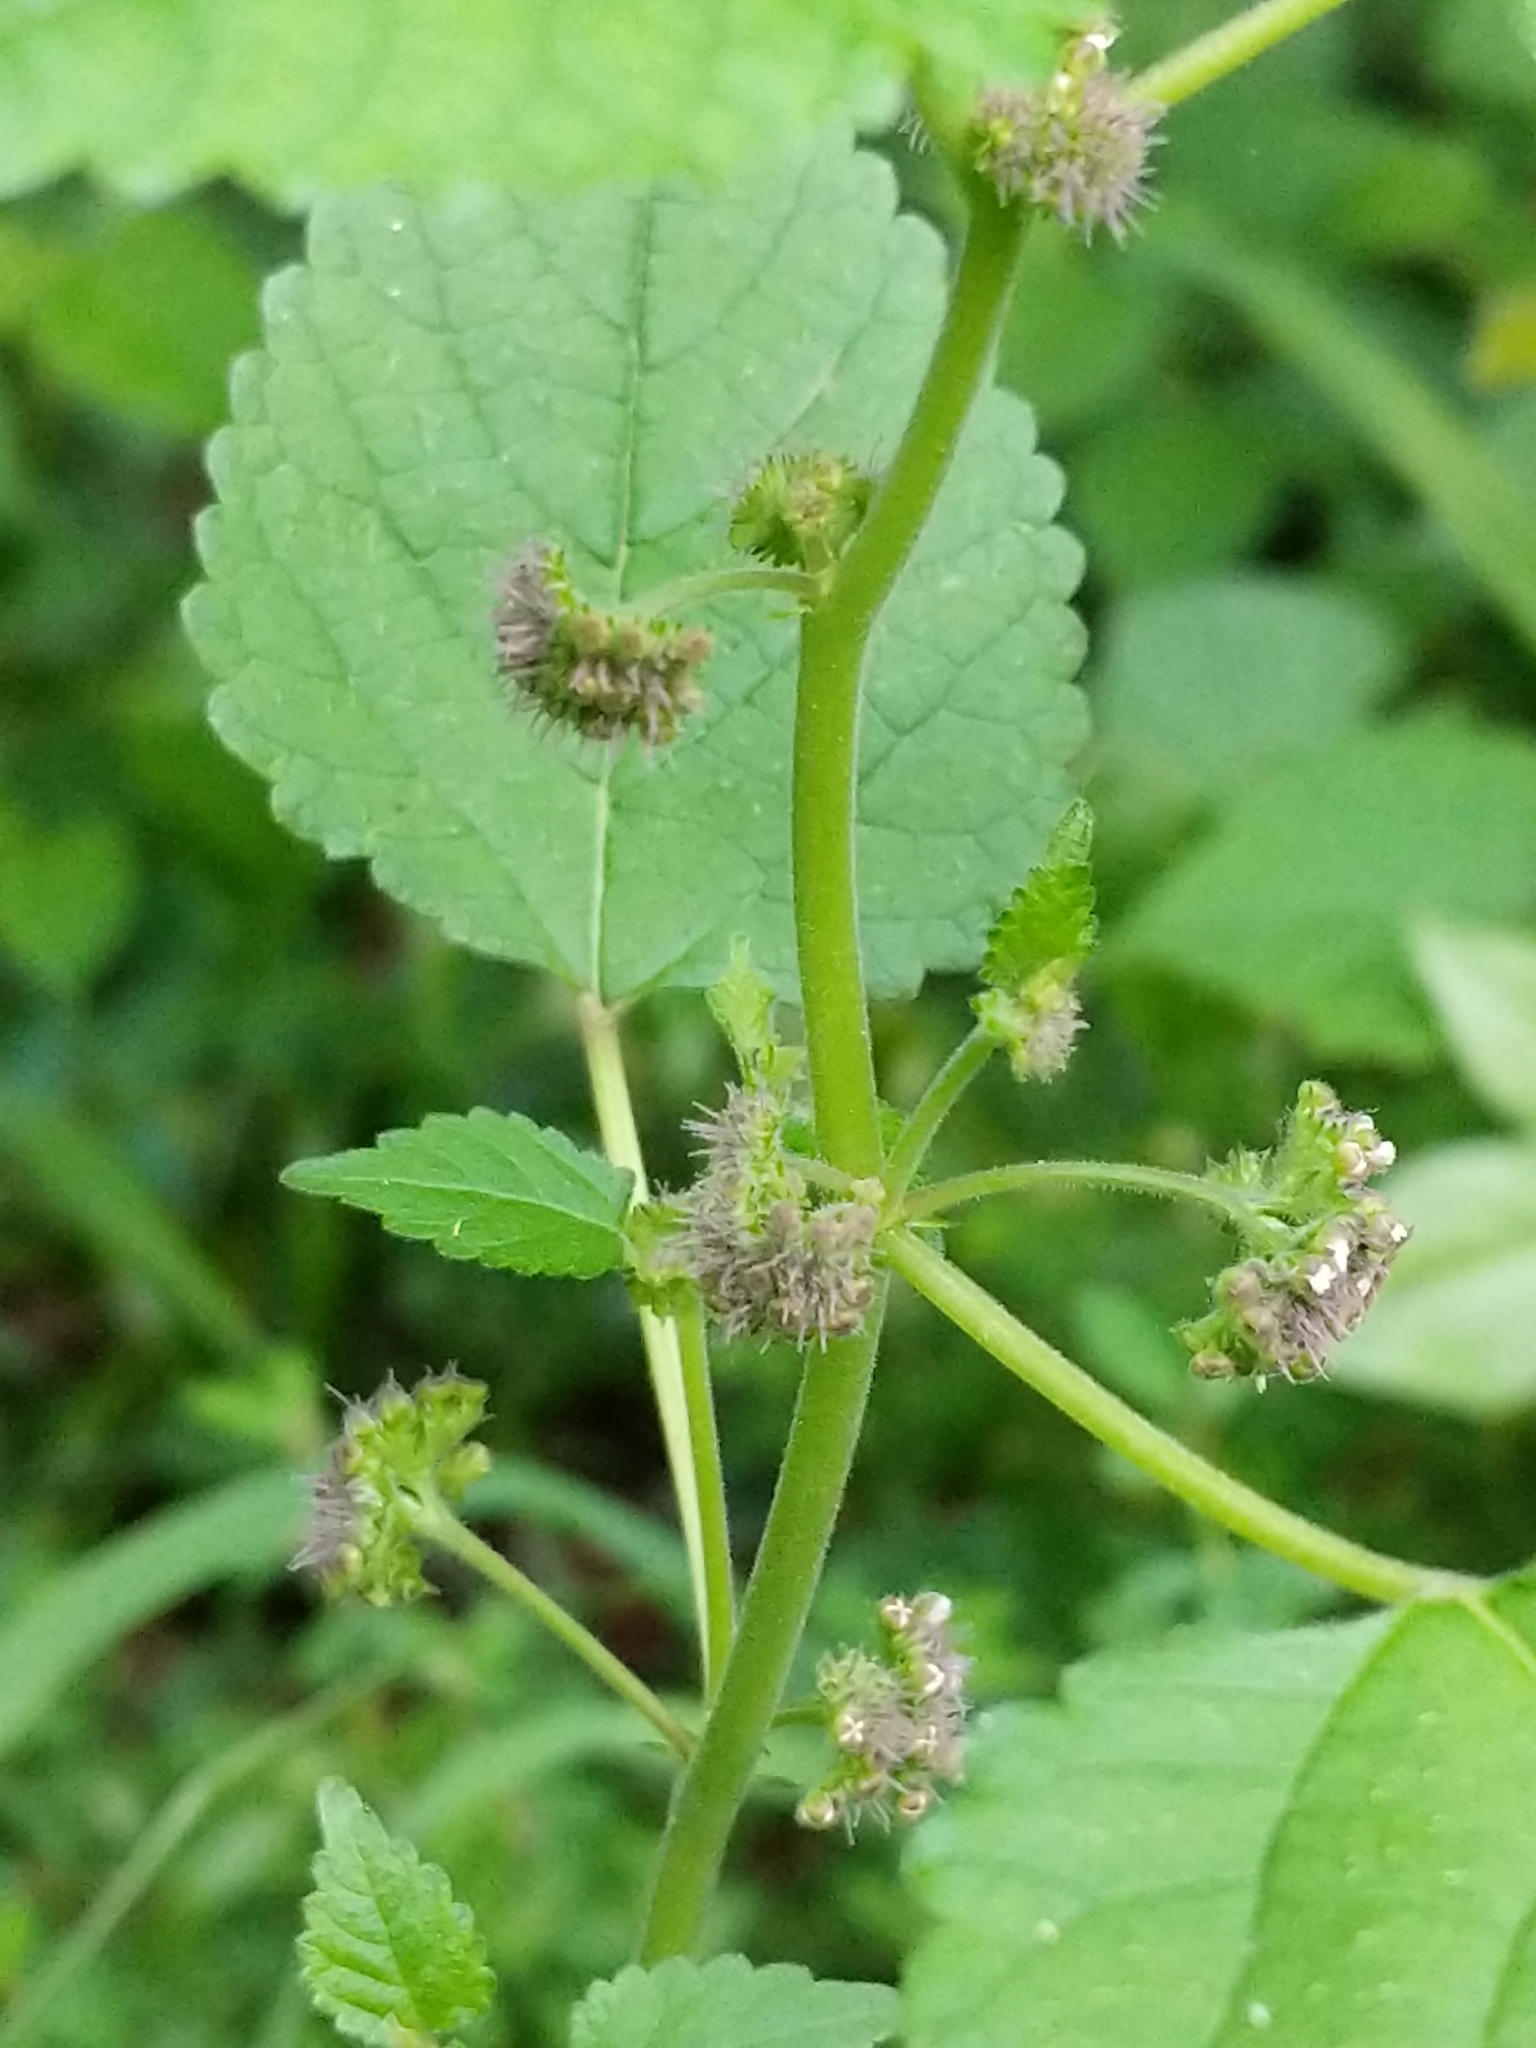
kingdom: Plantae
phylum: Tracheophyta
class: Magnoliopsida
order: Rosales
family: Moraceae
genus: Fatoua
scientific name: Fatoua villosa
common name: Hairy crabweed
